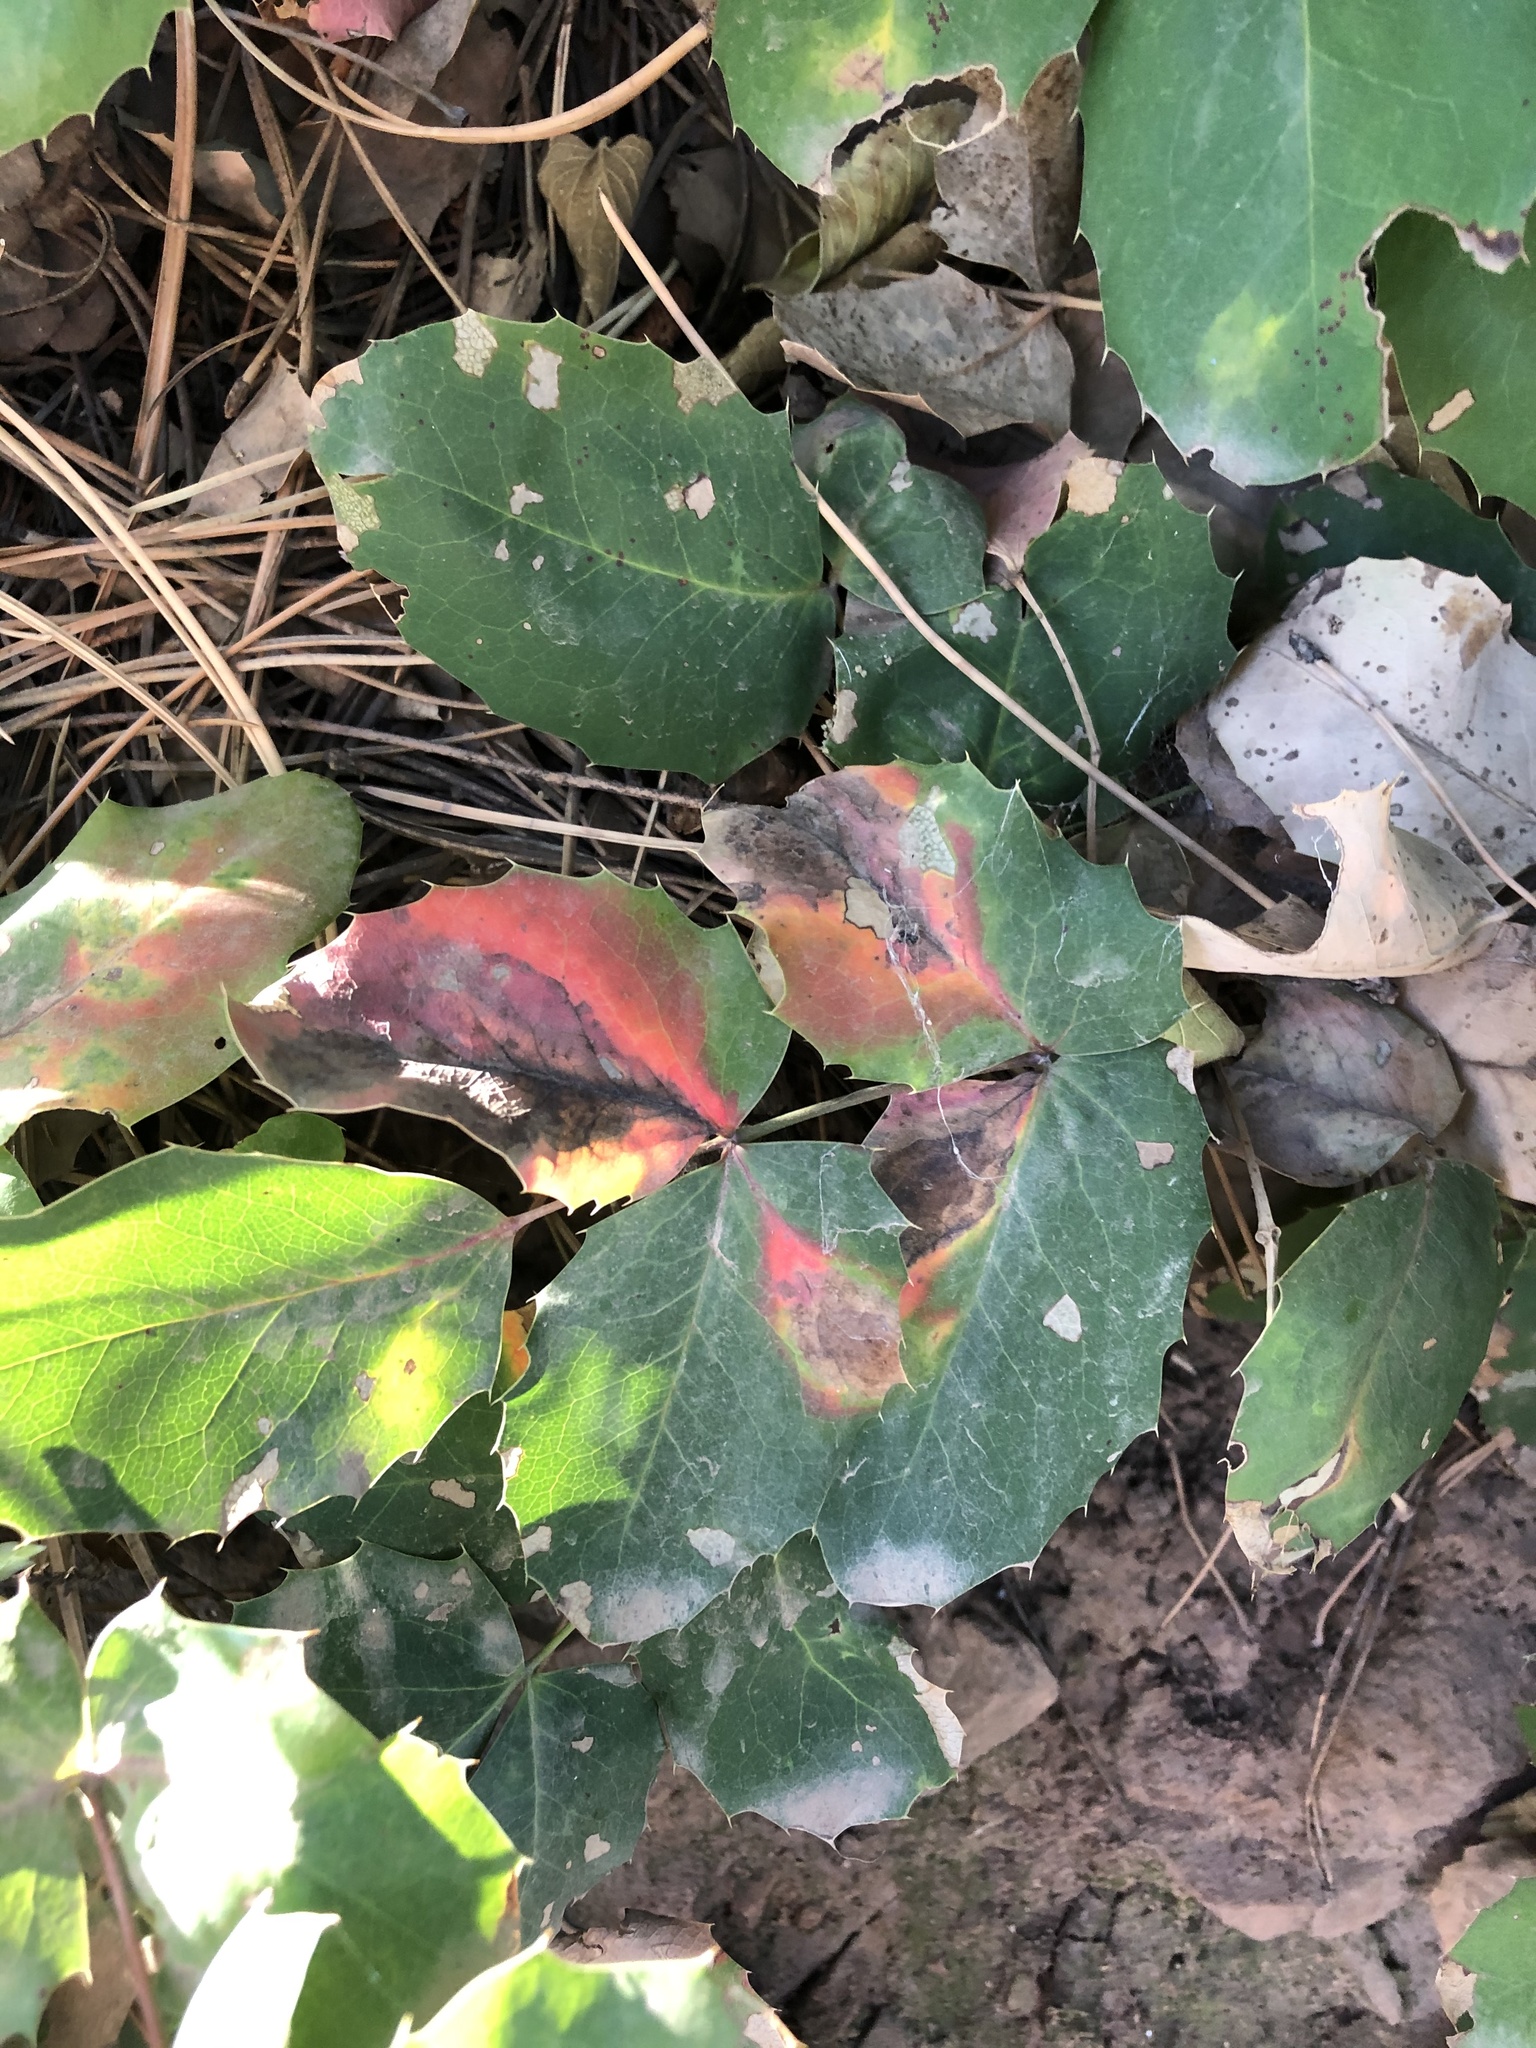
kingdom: Plantae
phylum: Tracheophyta
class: Magnoliopsida
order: Ranunculales
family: Berberidaceae
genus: Mahonia
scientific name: Mahonia repens
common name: Creeping oregon-grape
